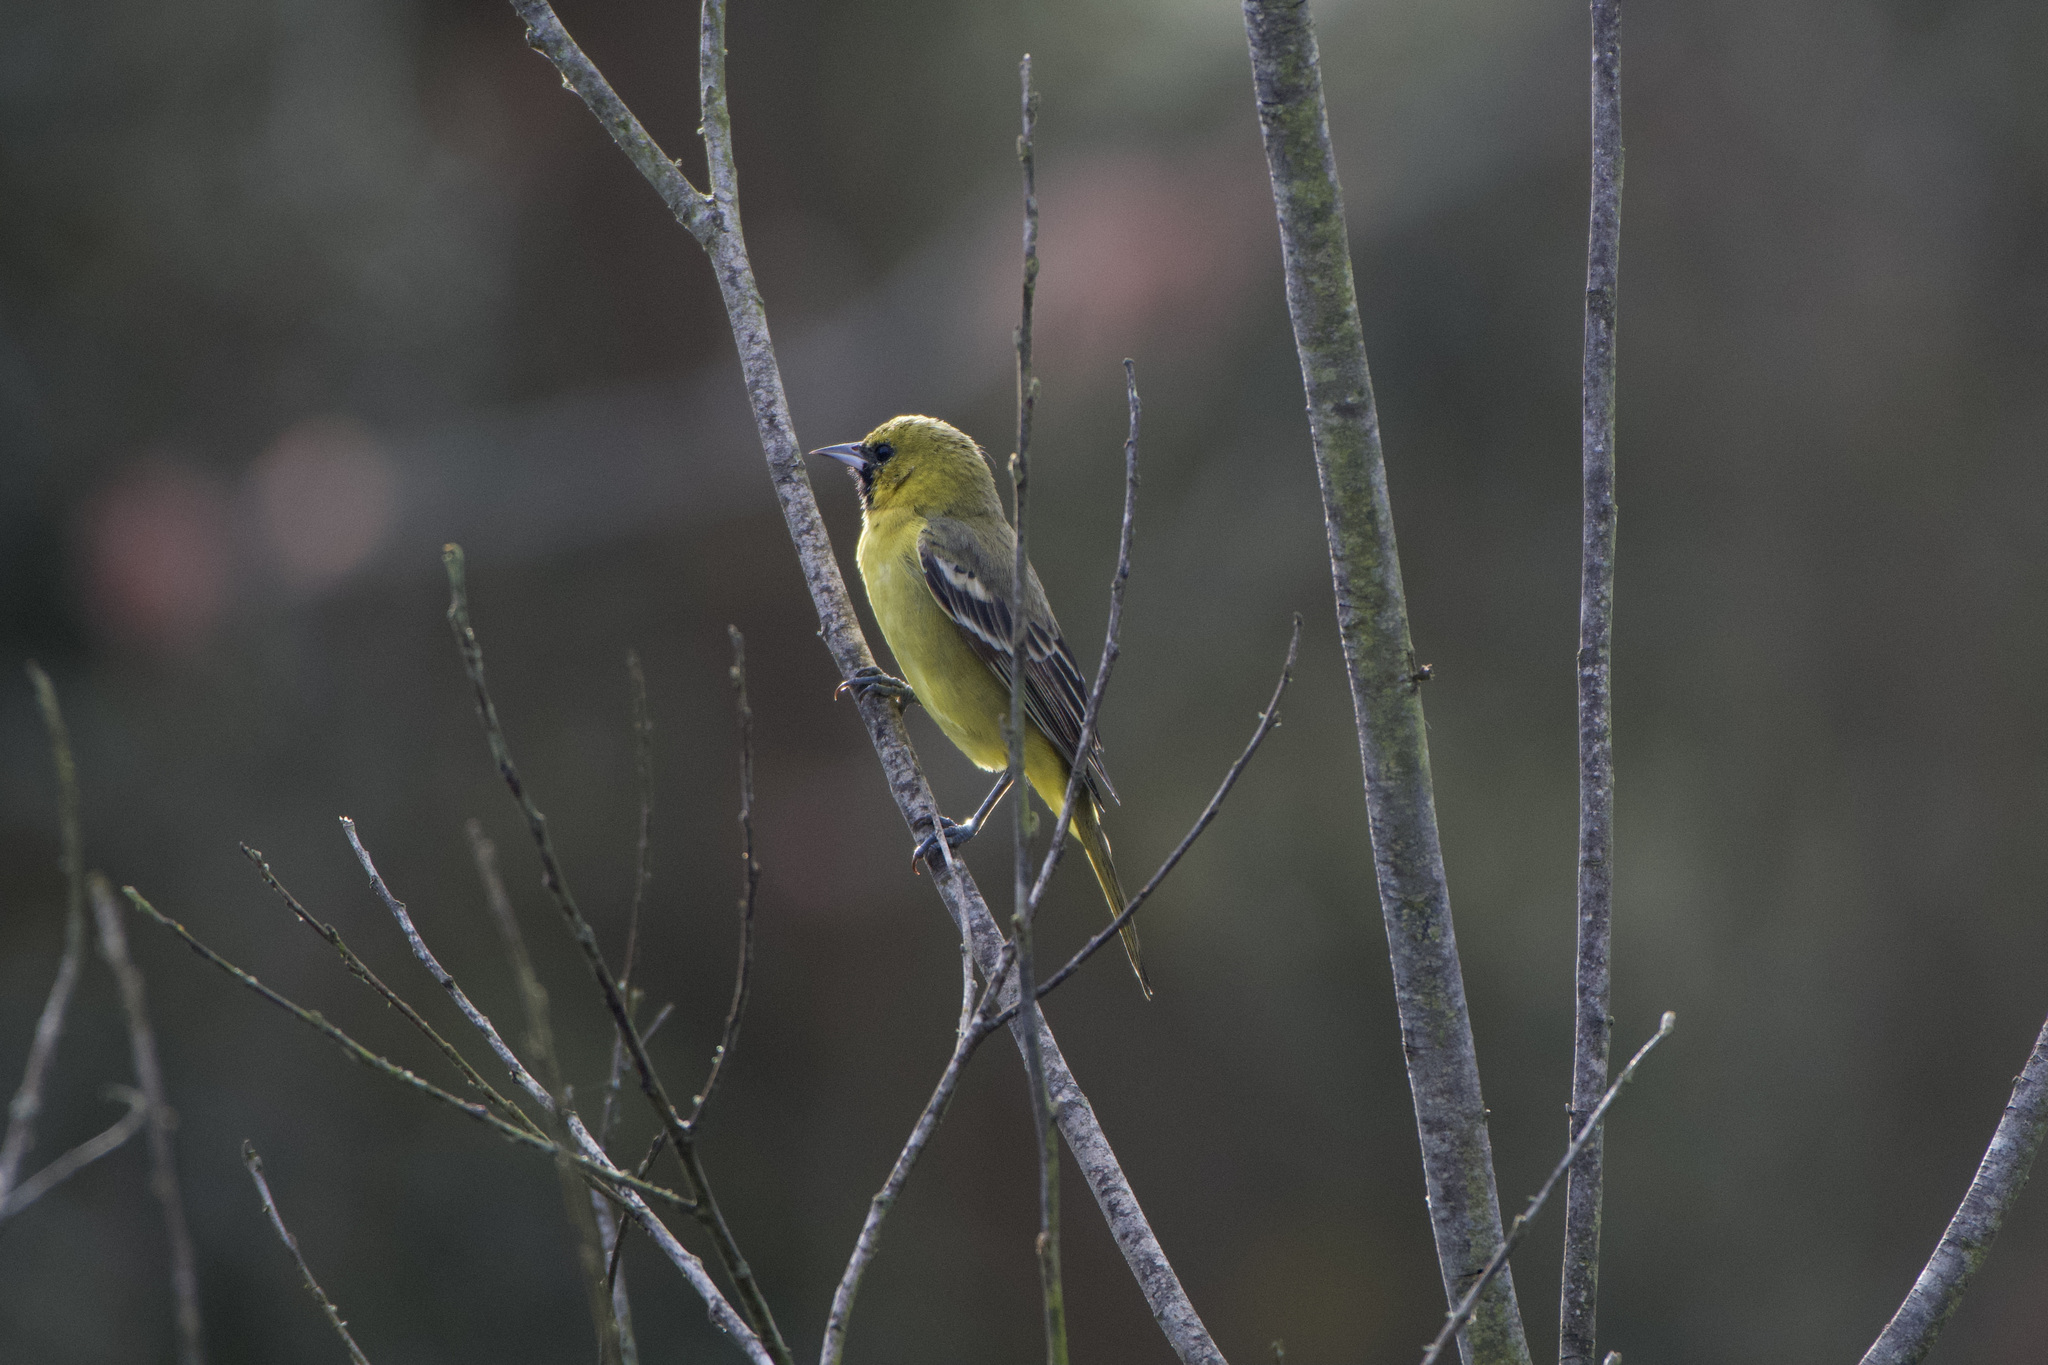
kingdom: Animalia
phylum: Chordata
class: Aves
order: Passeriformes
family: Icteridae
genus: Icterus
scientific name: Icterus spurius
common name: Orchard oriole
